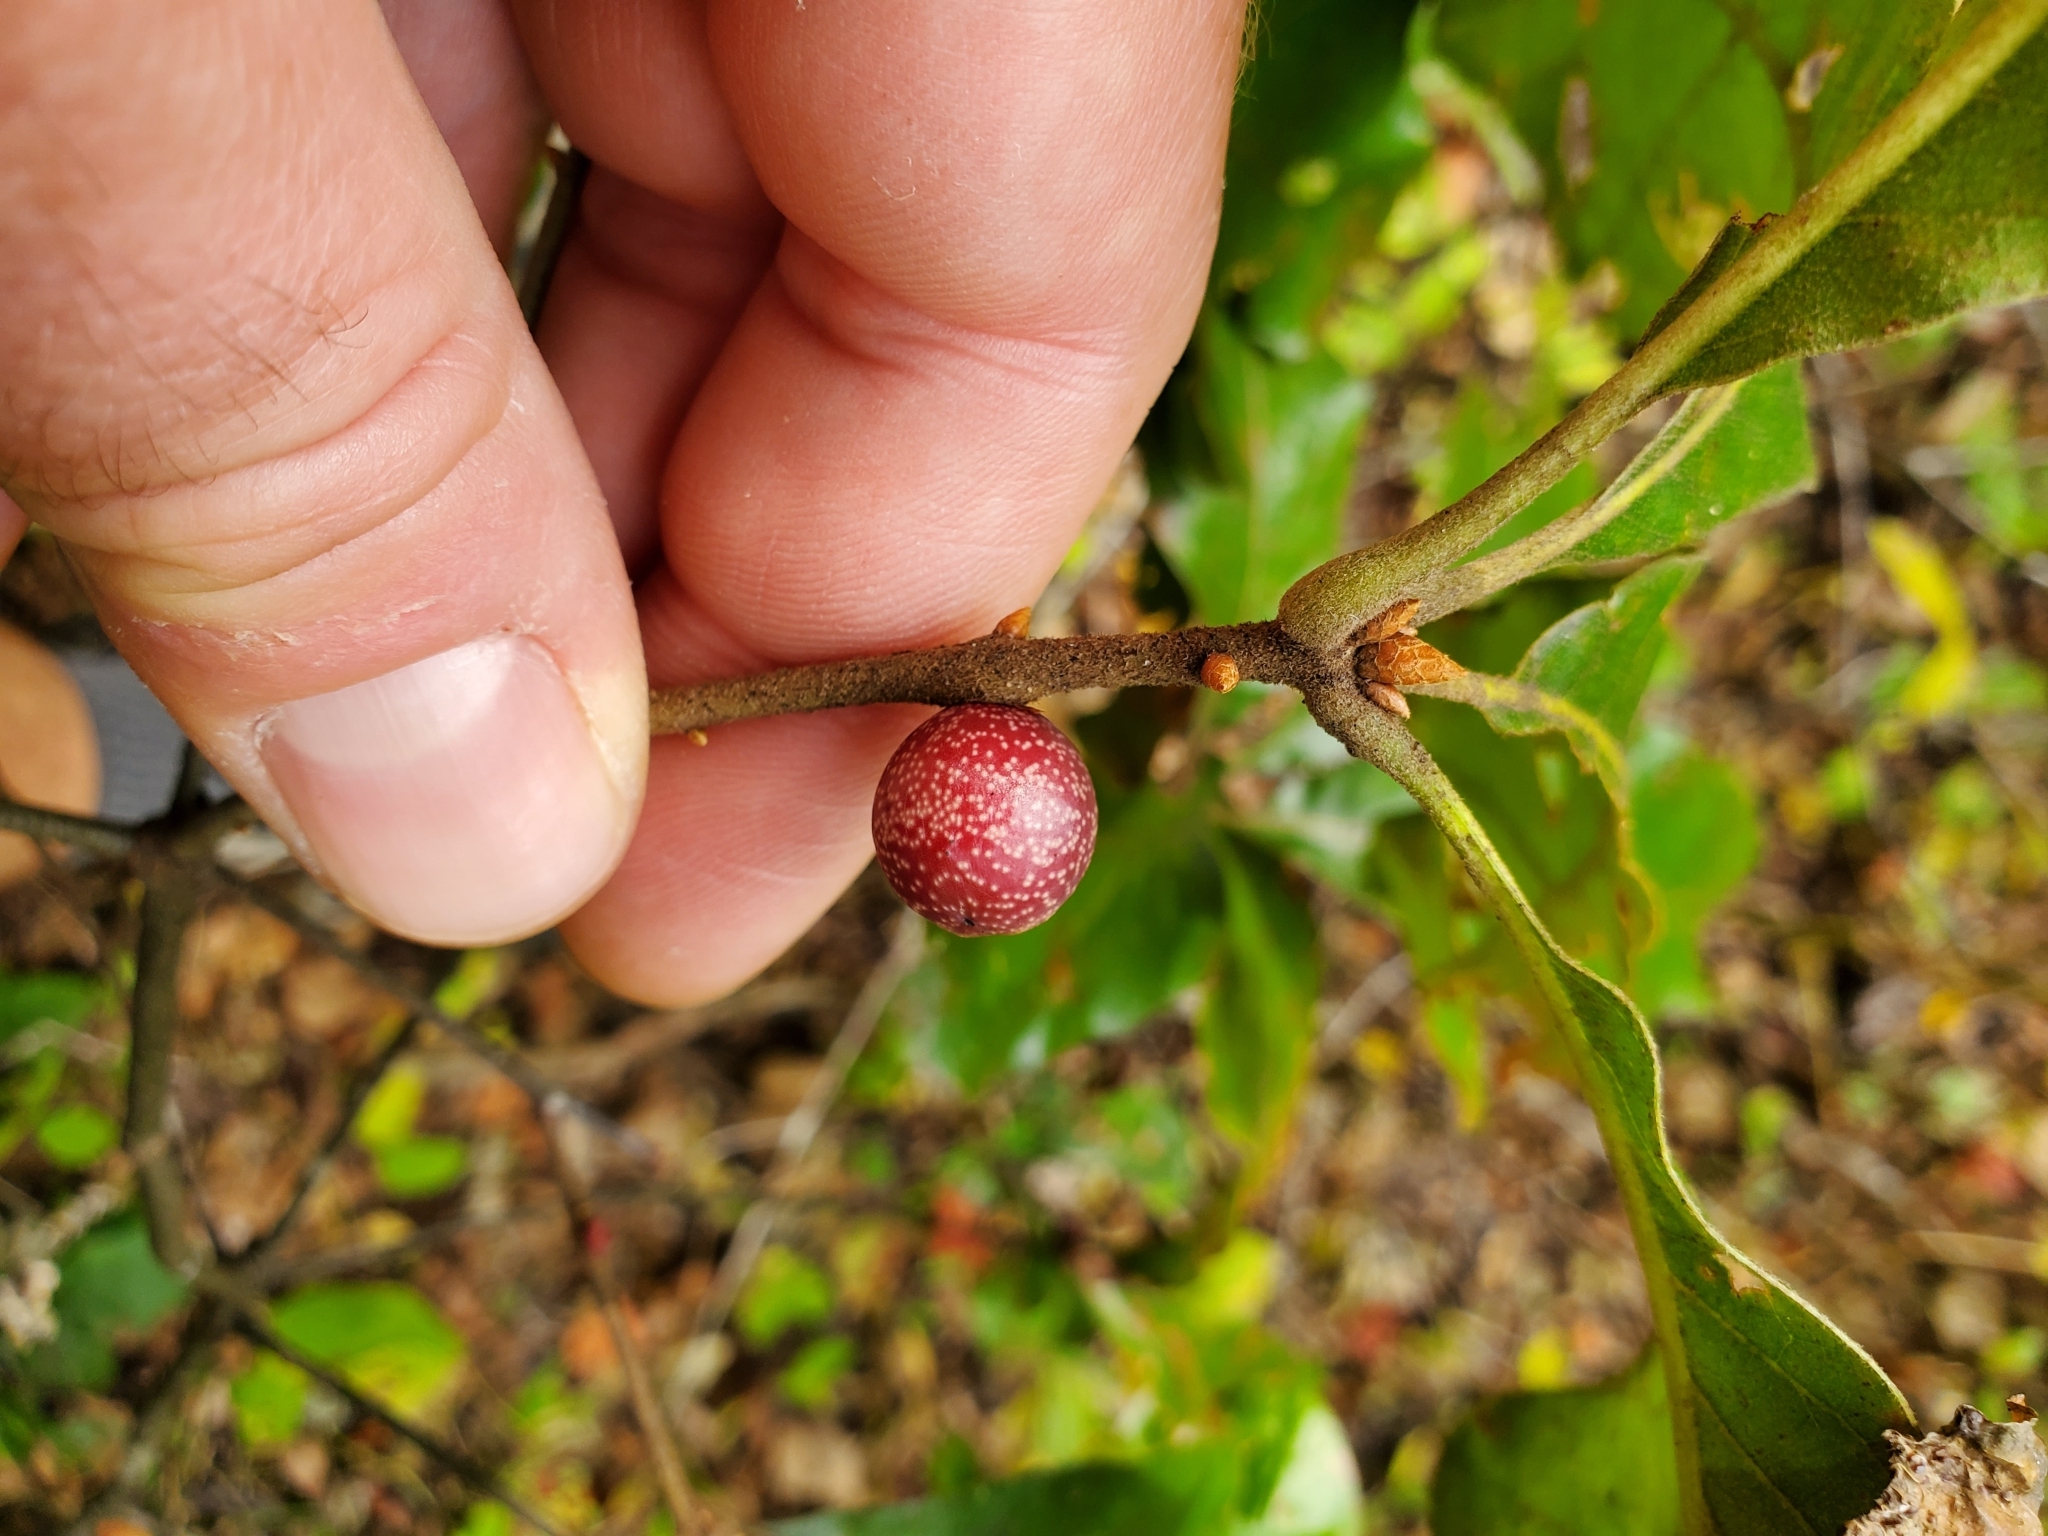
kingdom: Animalia
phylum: Arthropoda
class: Insecta
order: Hymenoptera
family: Cynipidae
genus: Kokkocynips
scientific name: Kokkocynips imbricariae
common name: Banded bullet gall wasp
